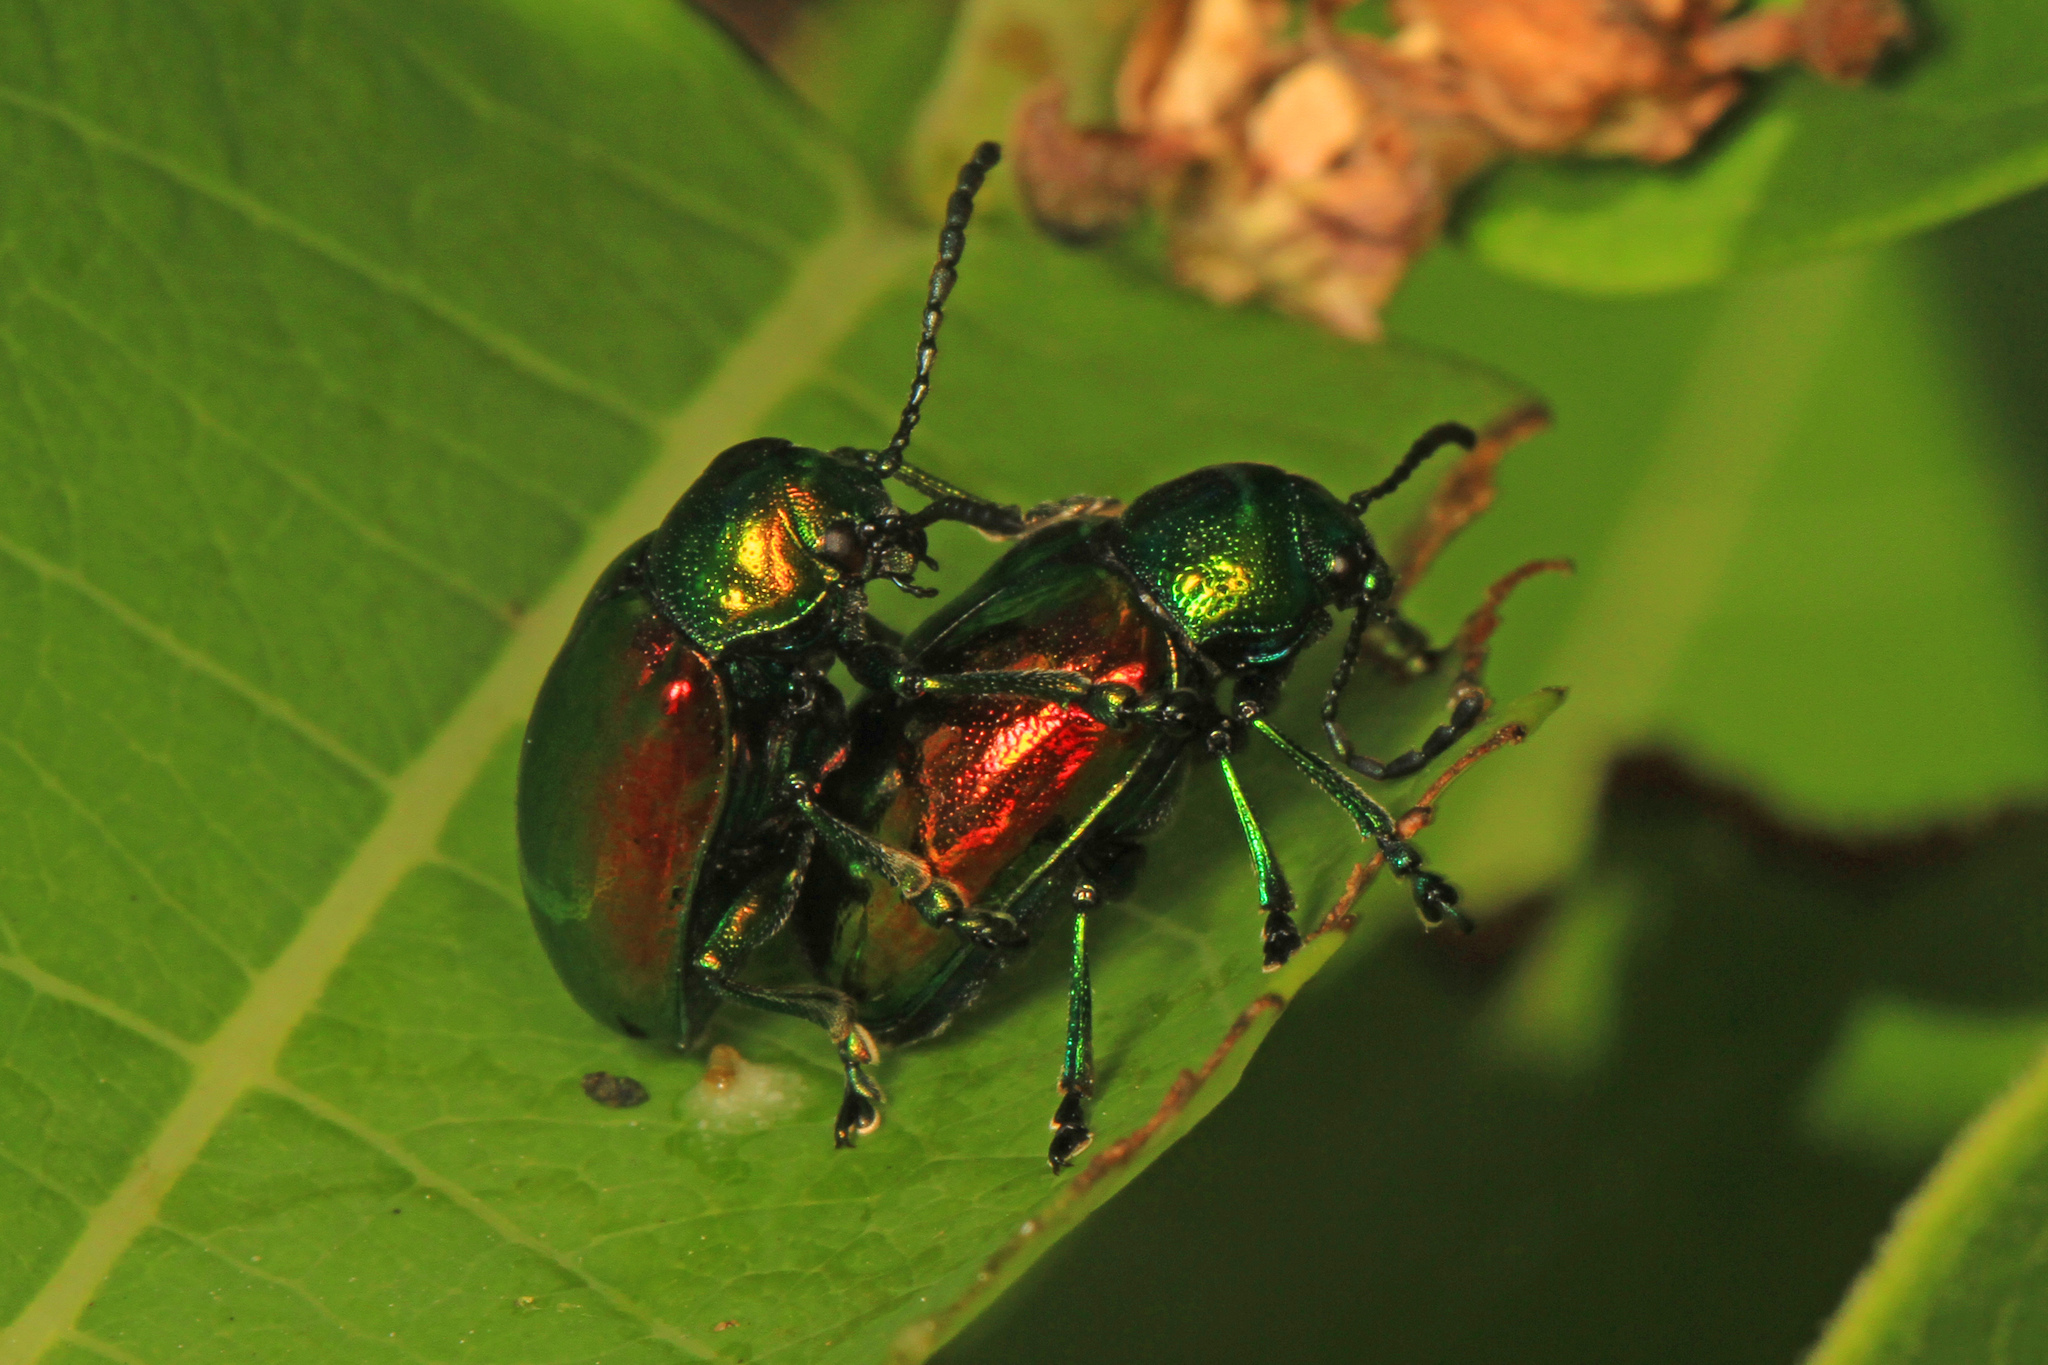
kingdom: Animalia
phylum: Arthropoda
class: Insecta
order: Coleoptera
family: Chrysomelidae
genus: Chrysochus
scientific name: Chrysochus auratus
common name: Dogbane leaf beetle
